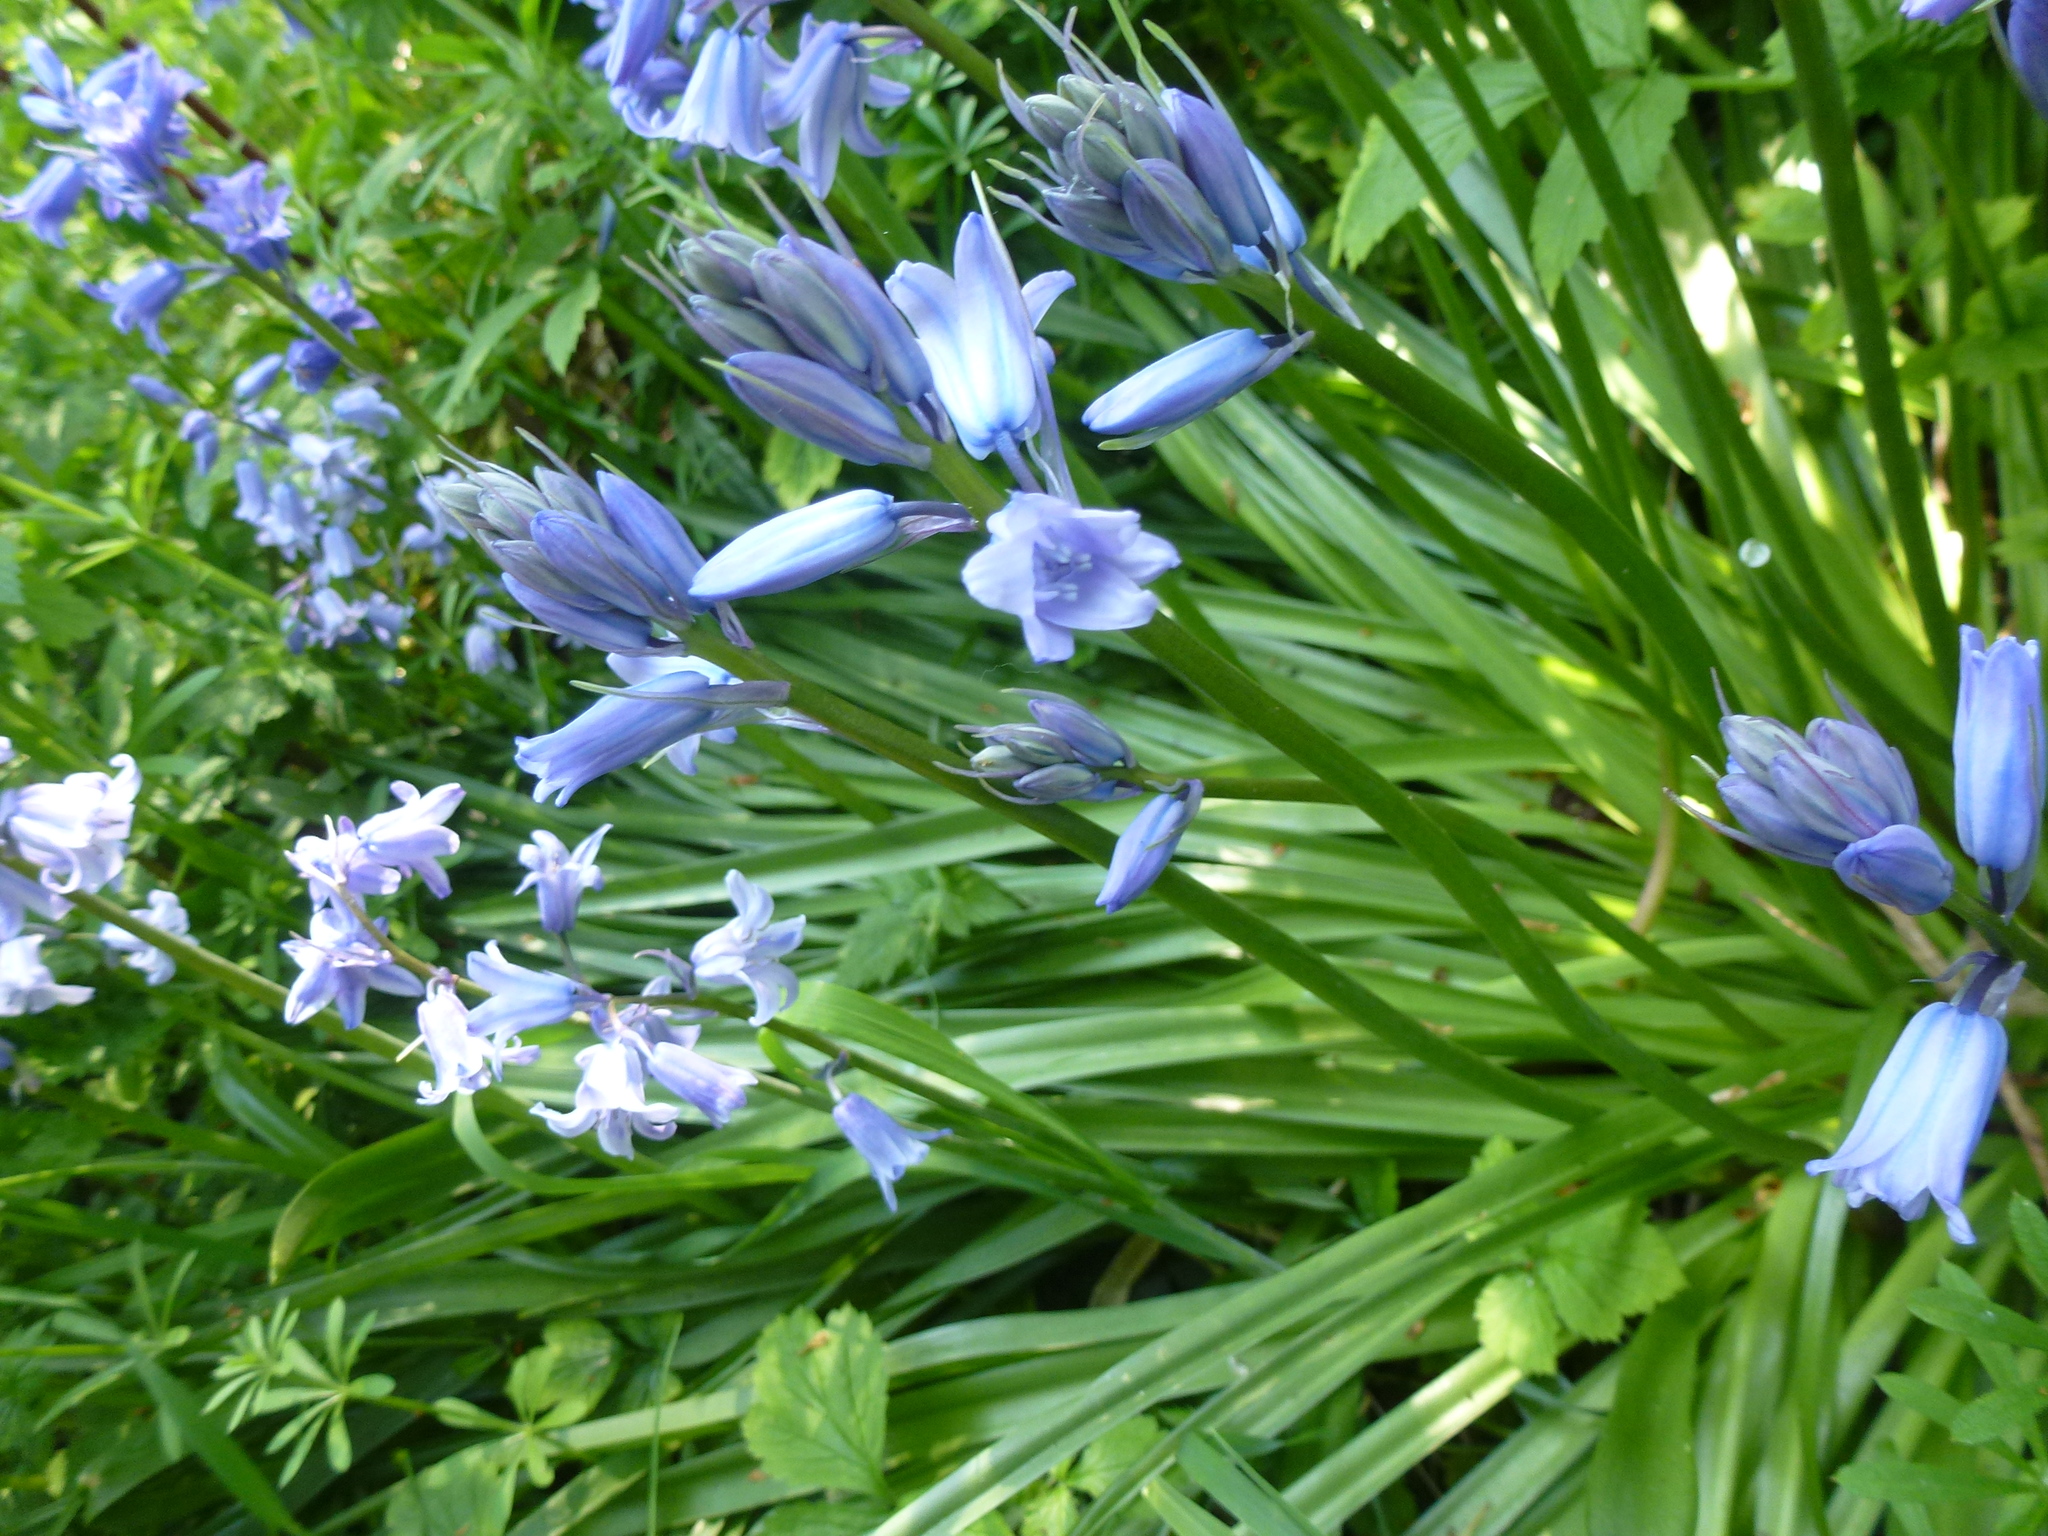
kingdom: Plantae
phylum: Tracheophyta
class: Liliopsida
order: Asparagales
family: Asparagaceae
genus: Hyacinthoides
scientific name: Hyacinthoides massartiana
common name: Hyacinthoides
